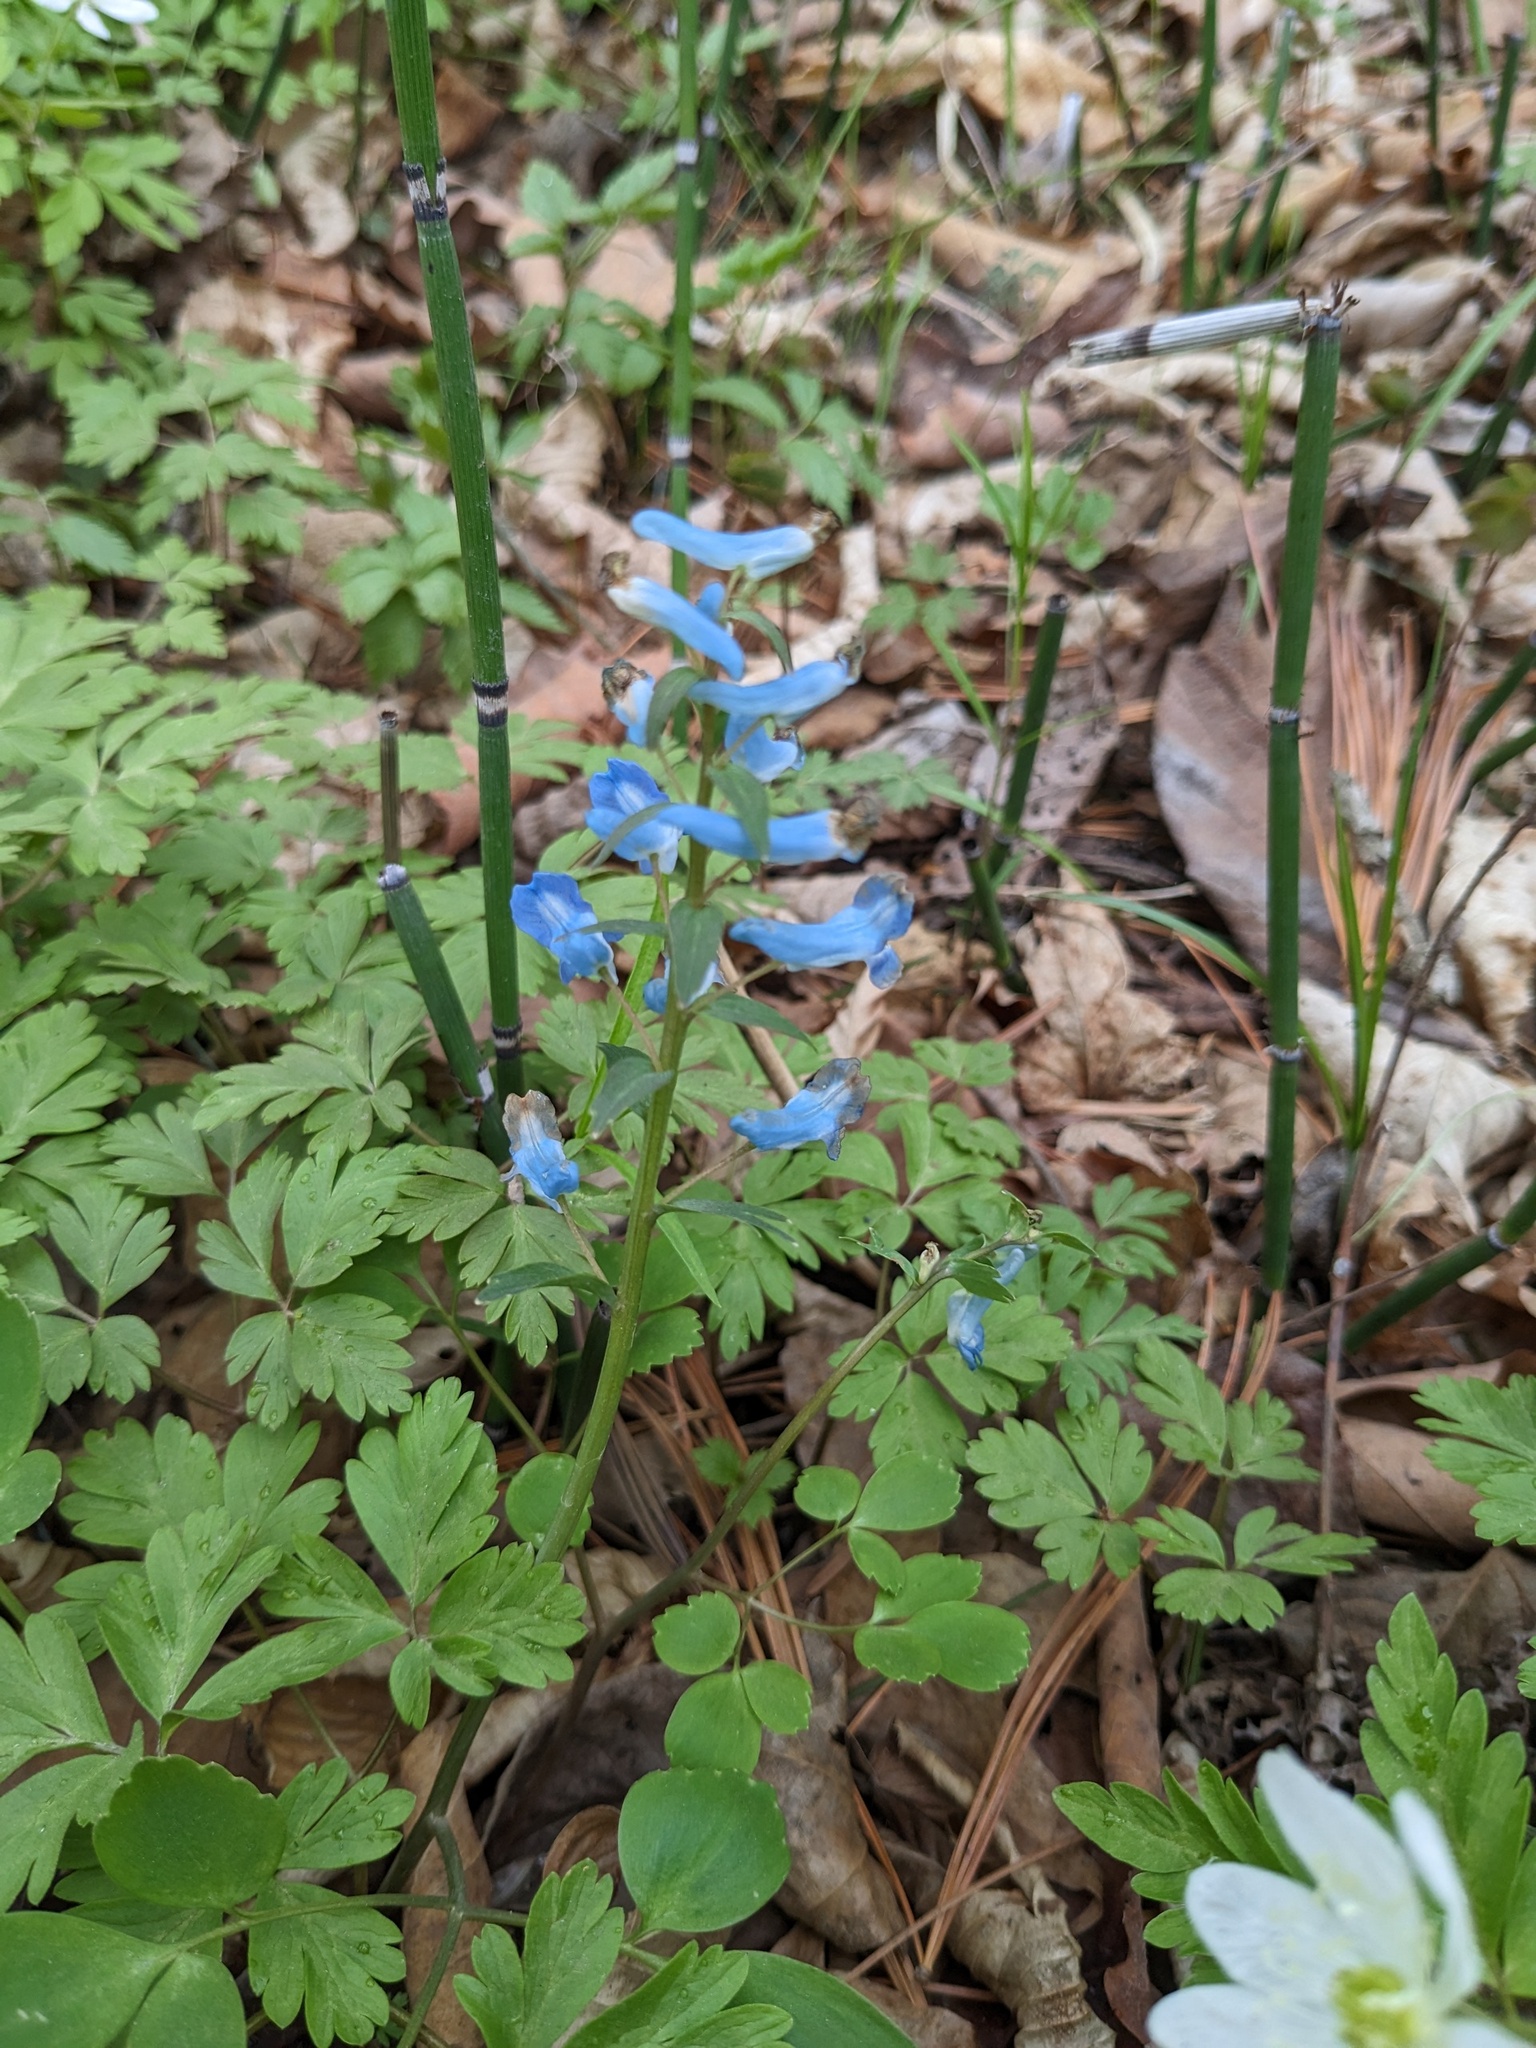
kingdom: Plantae
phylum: Tracheophyta
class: Magnoliopsida
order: Ranunculales
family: Papaveraceae
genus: Corydalis
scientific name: Corydalis ambigua
